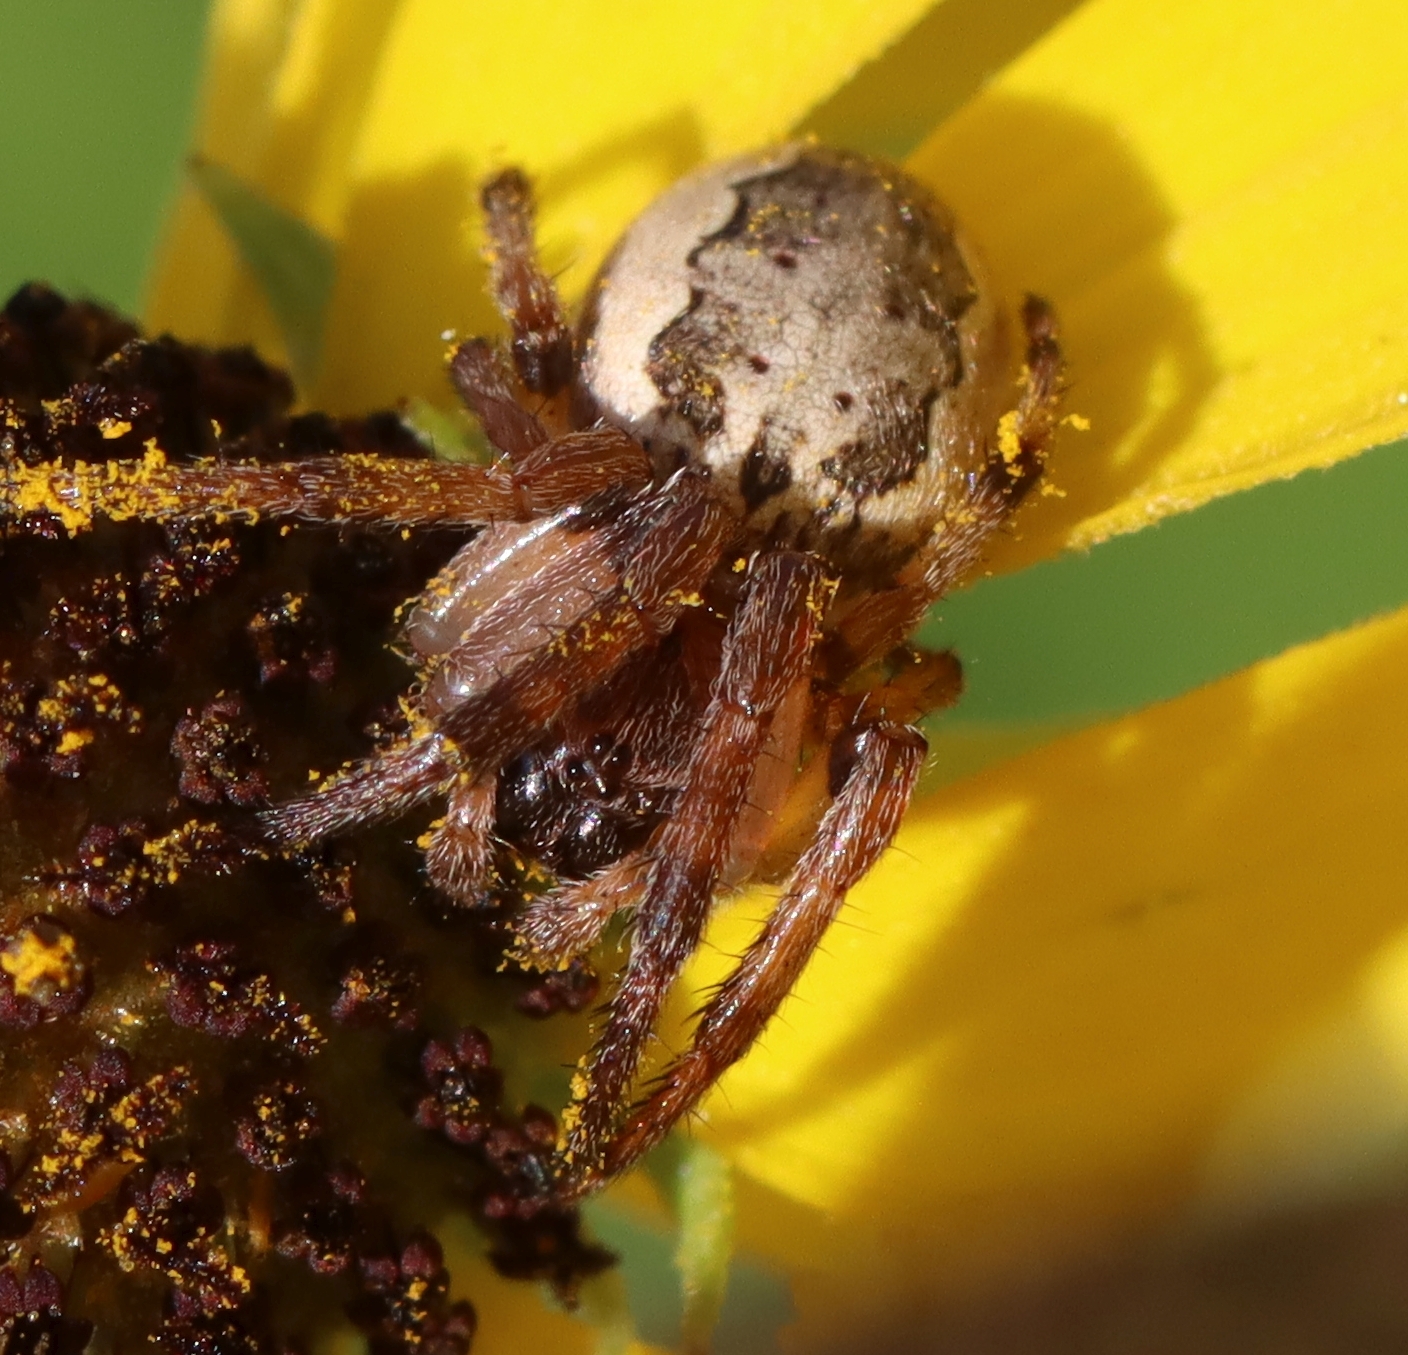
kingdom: Animalia
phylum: Arthropoda
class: Arachnida
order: Araneae
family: Araneidae
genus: Larinioides
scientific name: Larinioides cornutus
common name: Furrow orbweaver
